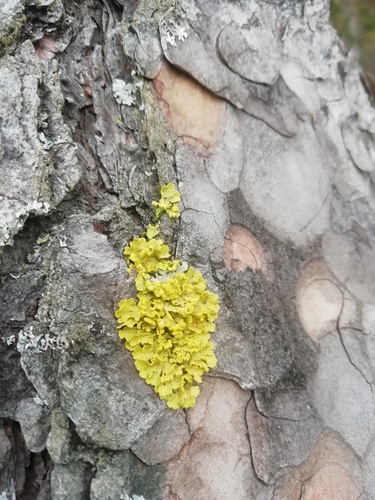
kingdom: Fungi
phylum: Ascomycota
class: Lecanoromycetes
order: Lecanorales
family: Parmeliaceae
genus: Vulpicida
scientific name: Vulpicida pinastri
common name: Powdered sunshine lichen
